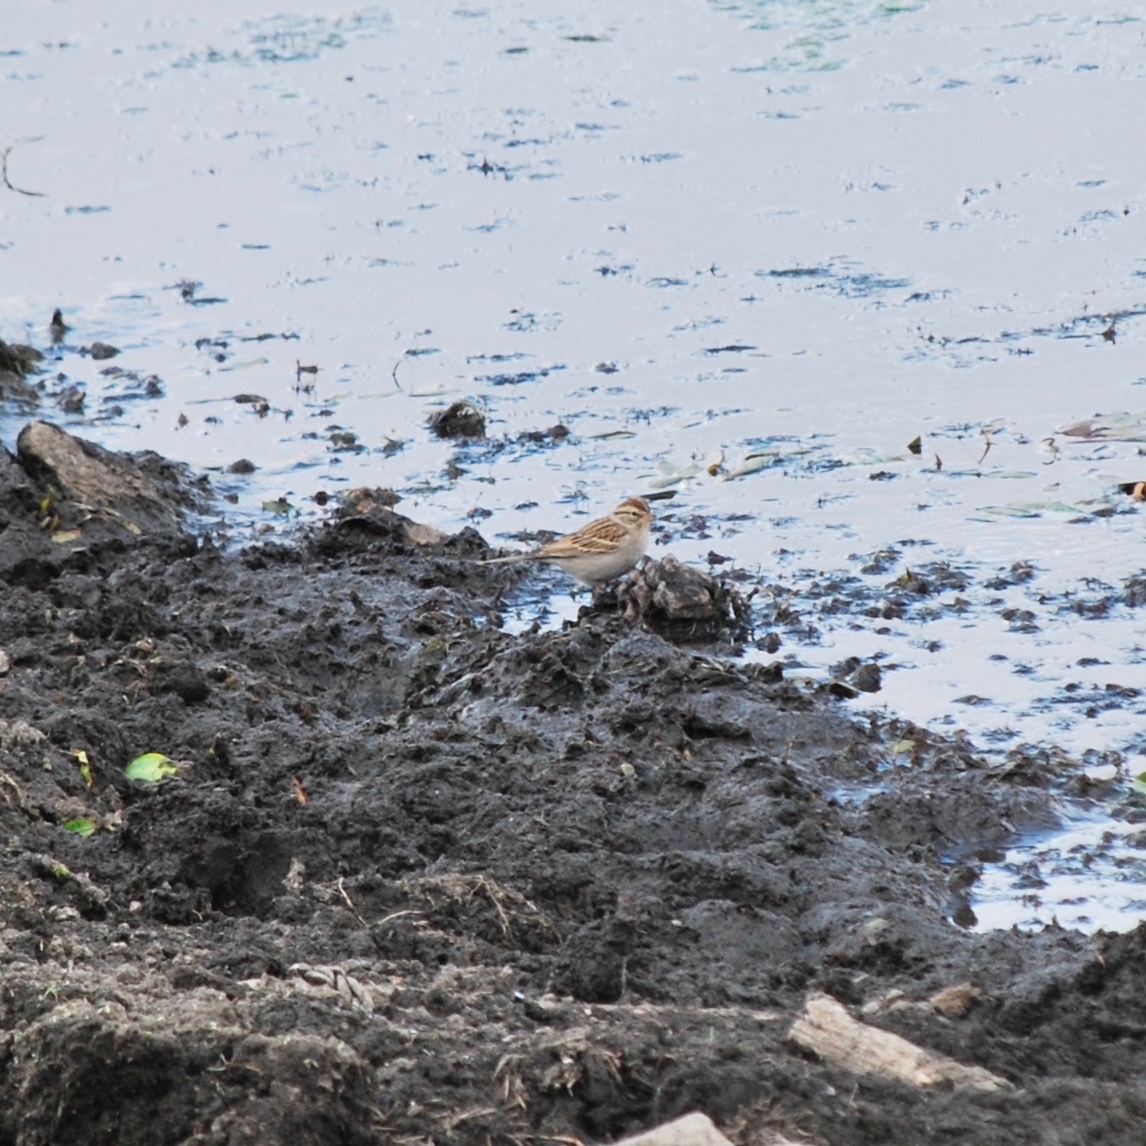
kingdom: Animalia
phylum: Chordata
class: Aves
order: Passeriformes
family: Passerellidae
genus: Spizella
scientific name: Spizella passerina
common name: Chipping sparrow
